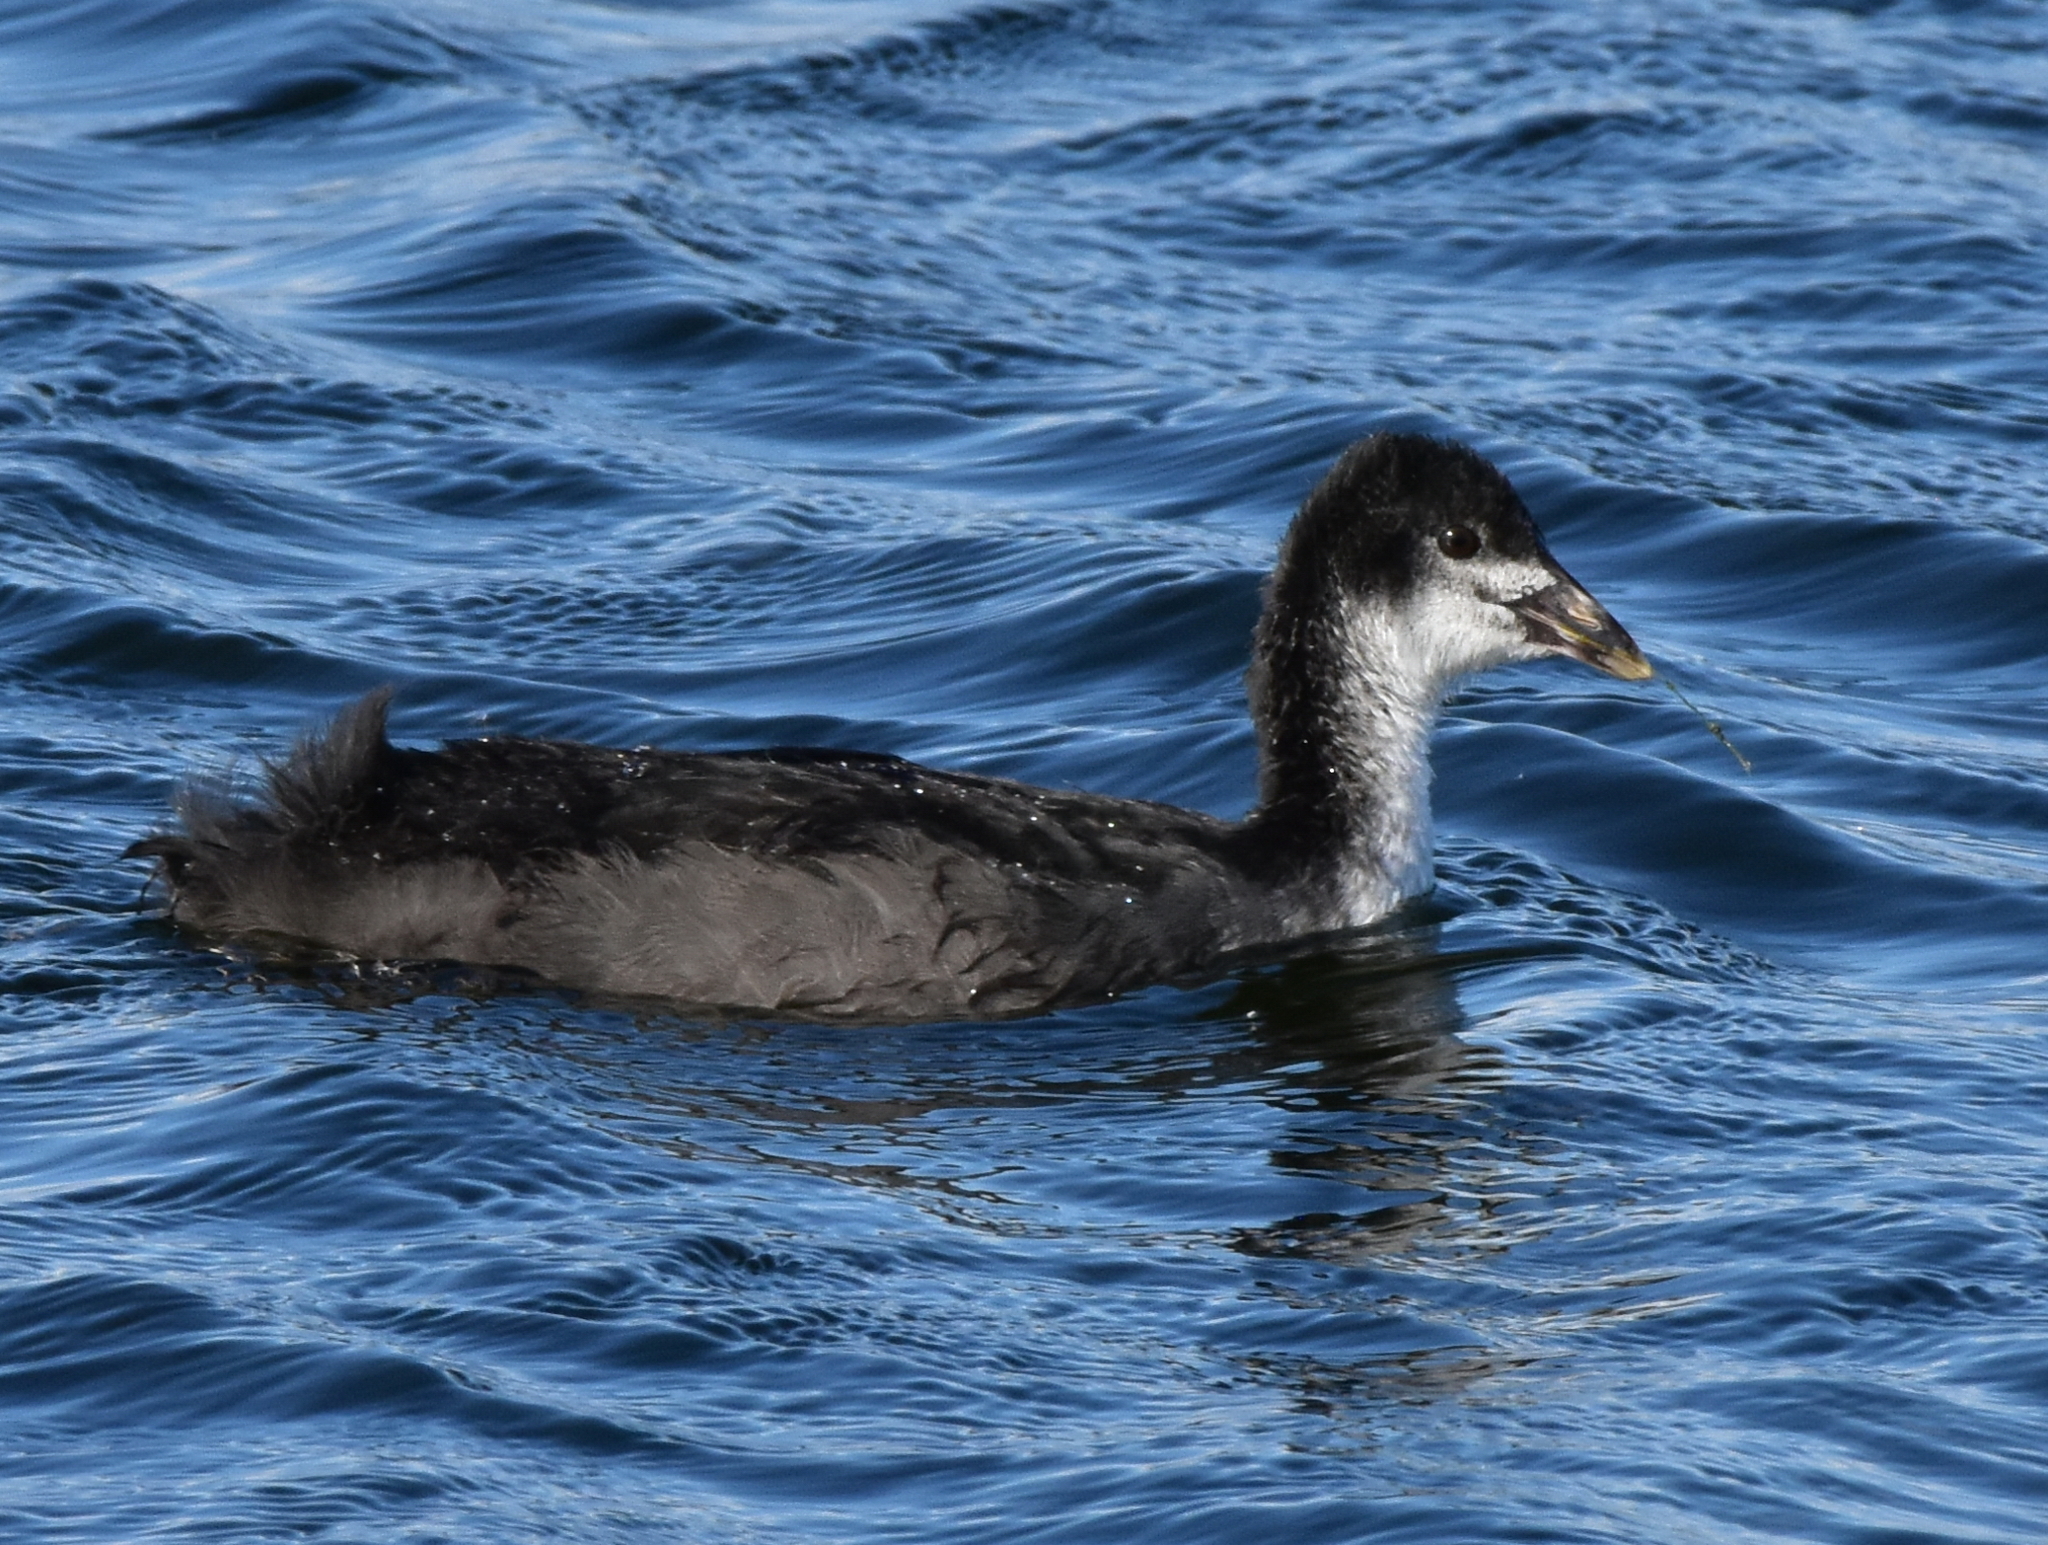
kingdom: Animalia
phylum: Chordata
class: Aves
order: Gruiformes
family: Rallidae
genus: Fulica
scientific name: Fulica atra
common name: Eurasian coot
